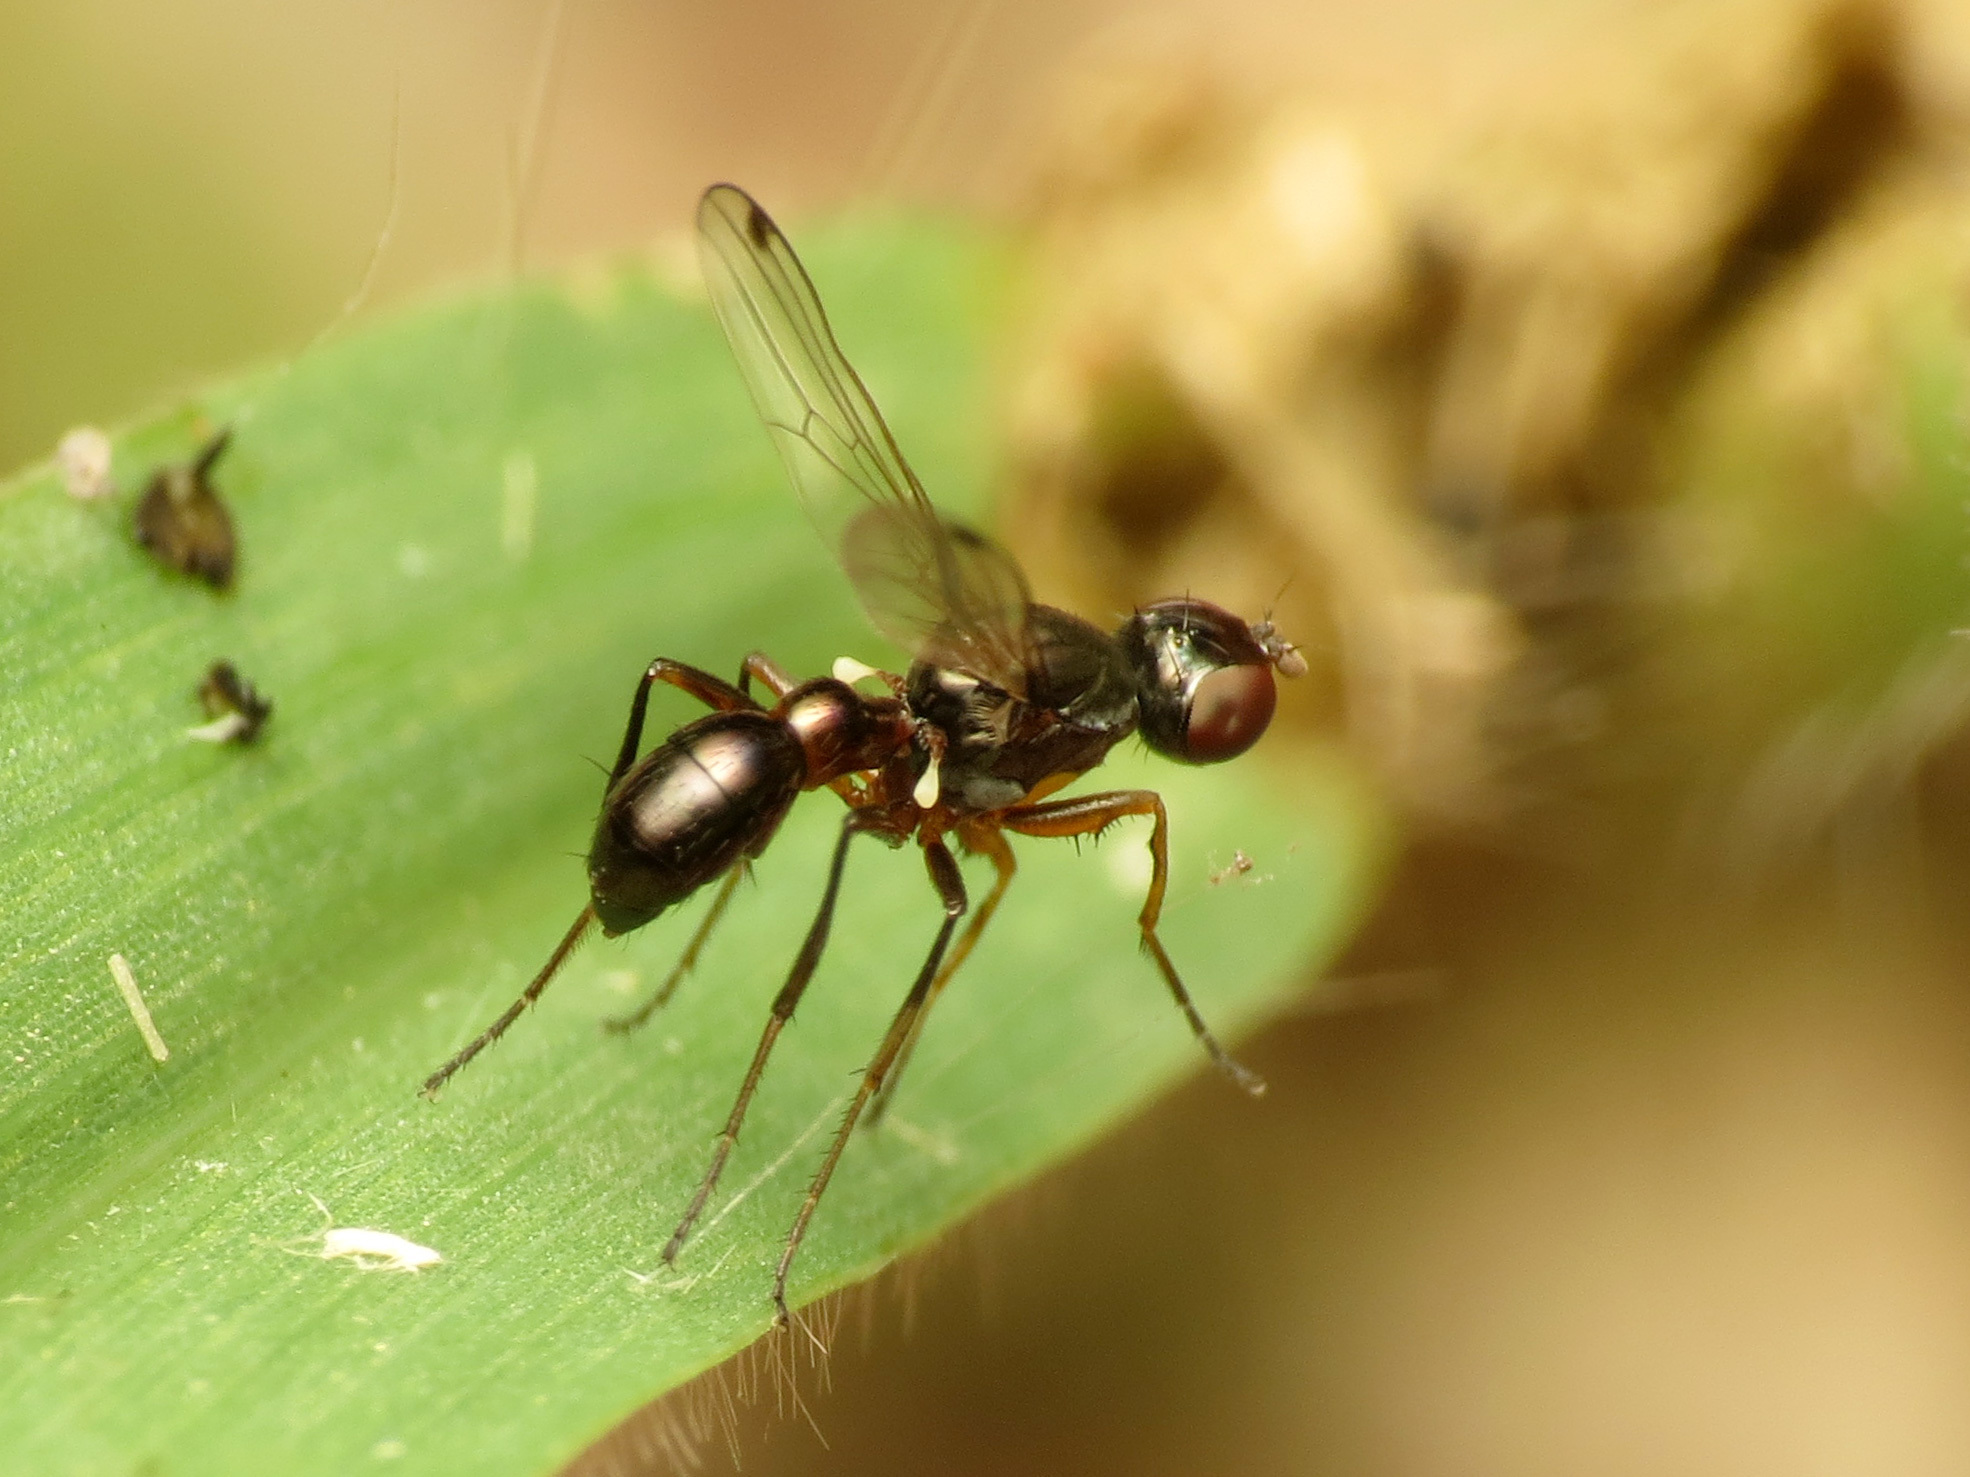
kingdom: Animalia
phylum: Arthropoda
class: Insecta
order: Diptera
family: Sepsidae
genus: Sepsis
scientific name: Sepsis neocynipsea
